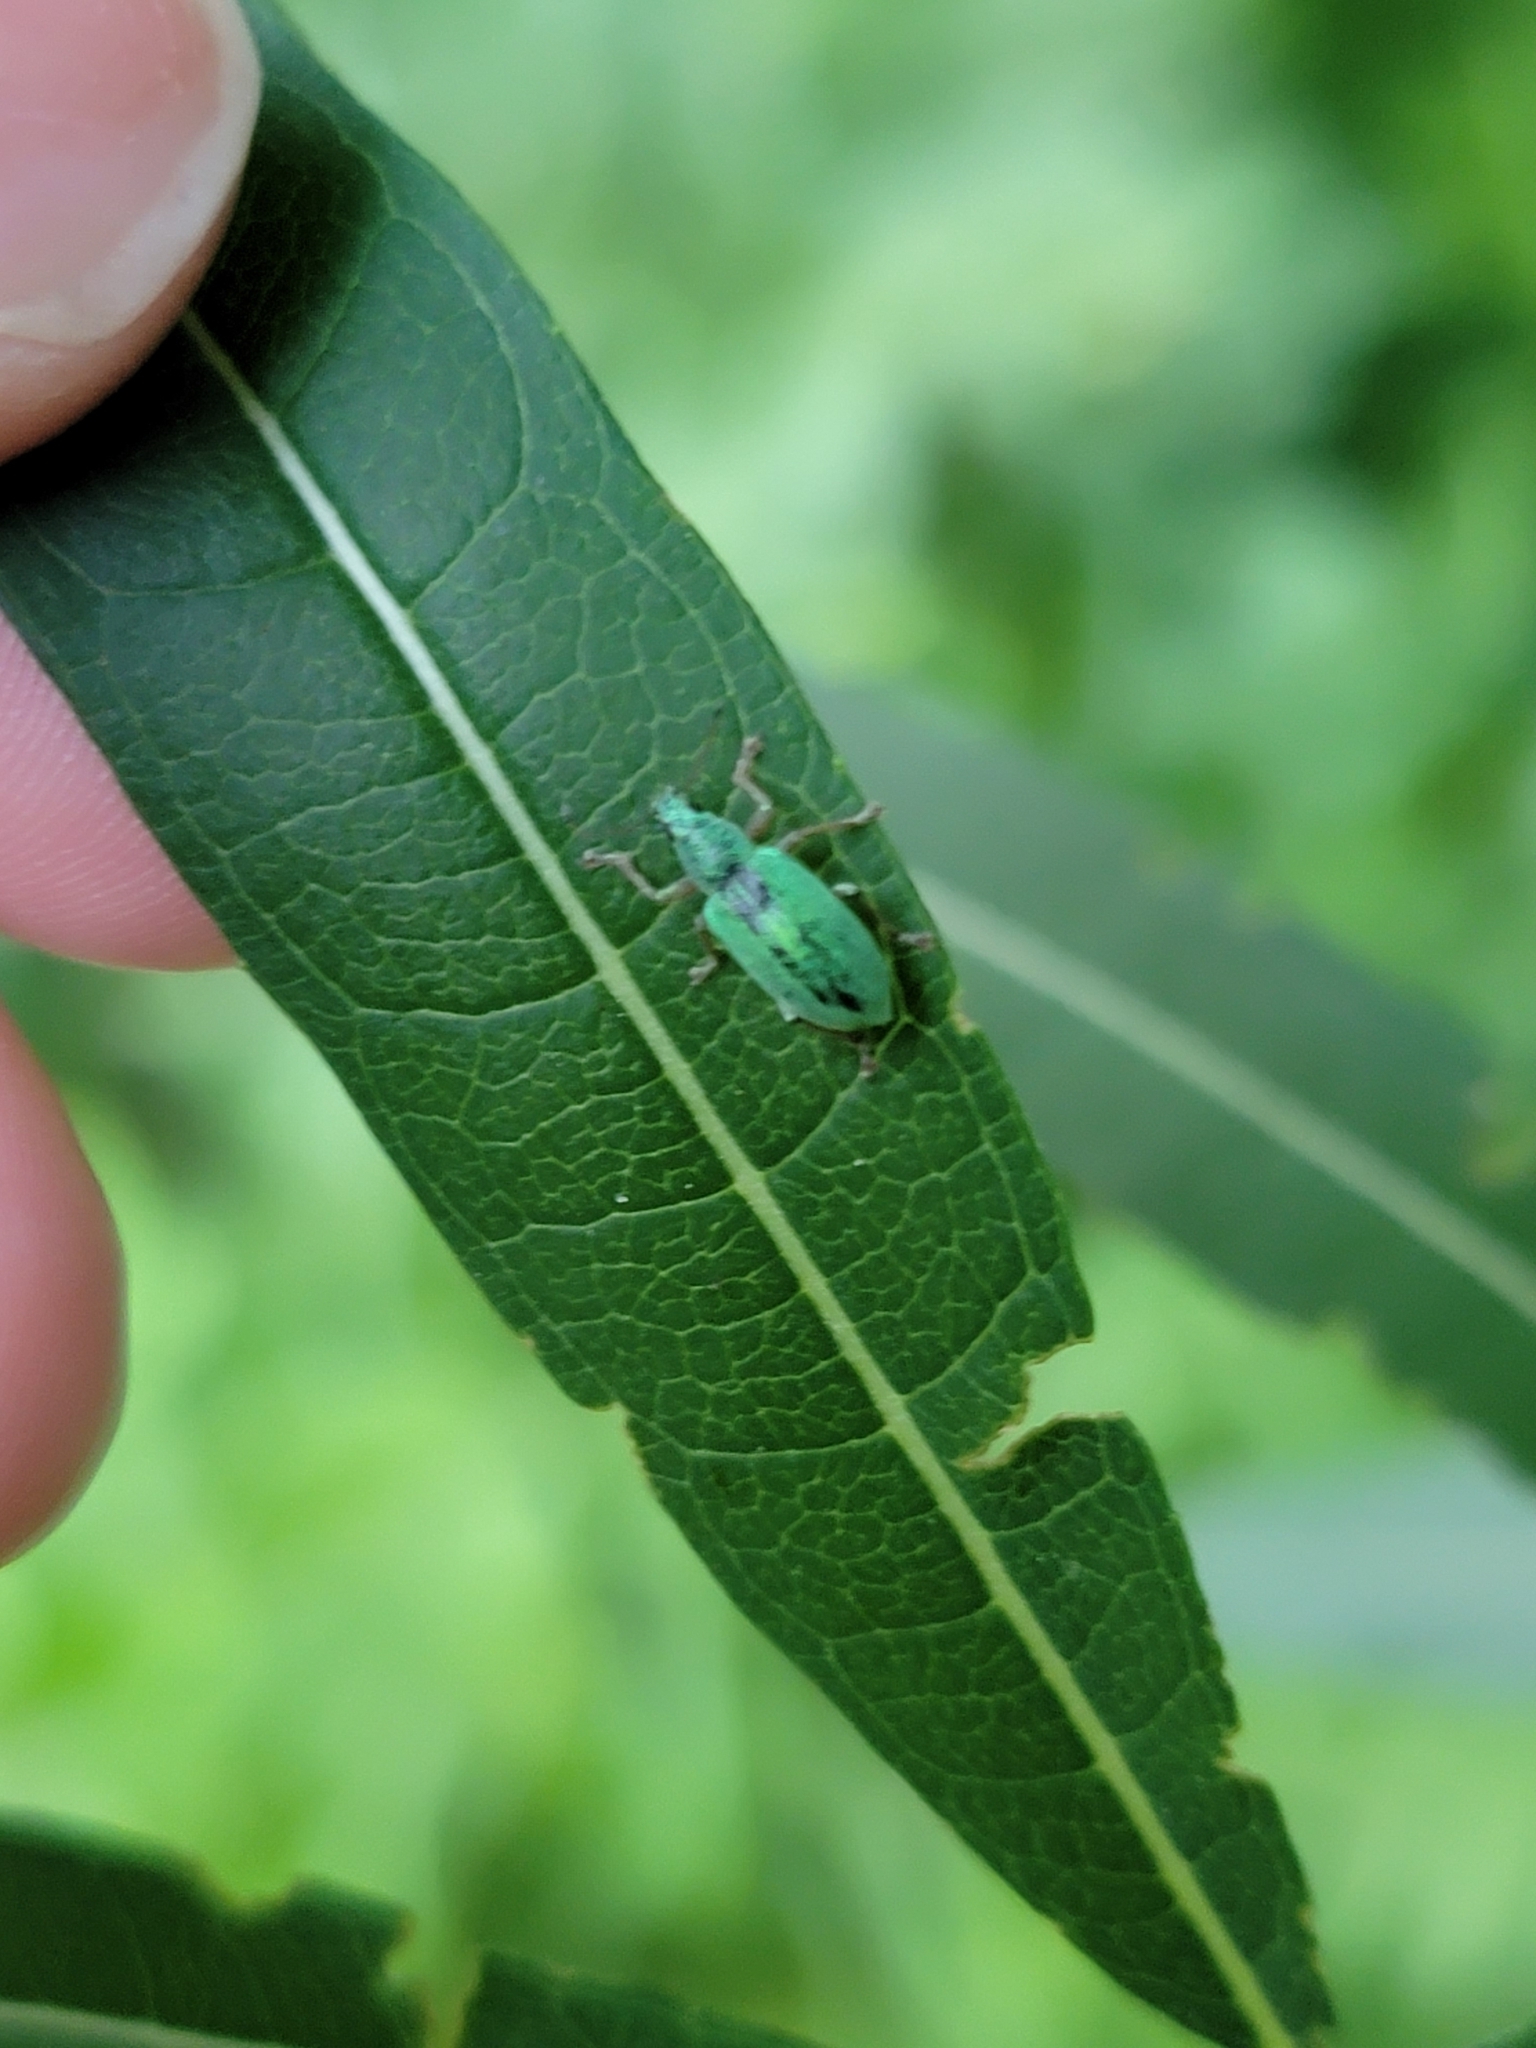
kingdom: Animalia
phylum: Arthropoda
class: Insecta
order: Coleoptera
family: Curculionidae
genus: Polydrusus
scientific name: Polydrusus formosus
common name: Weevil
